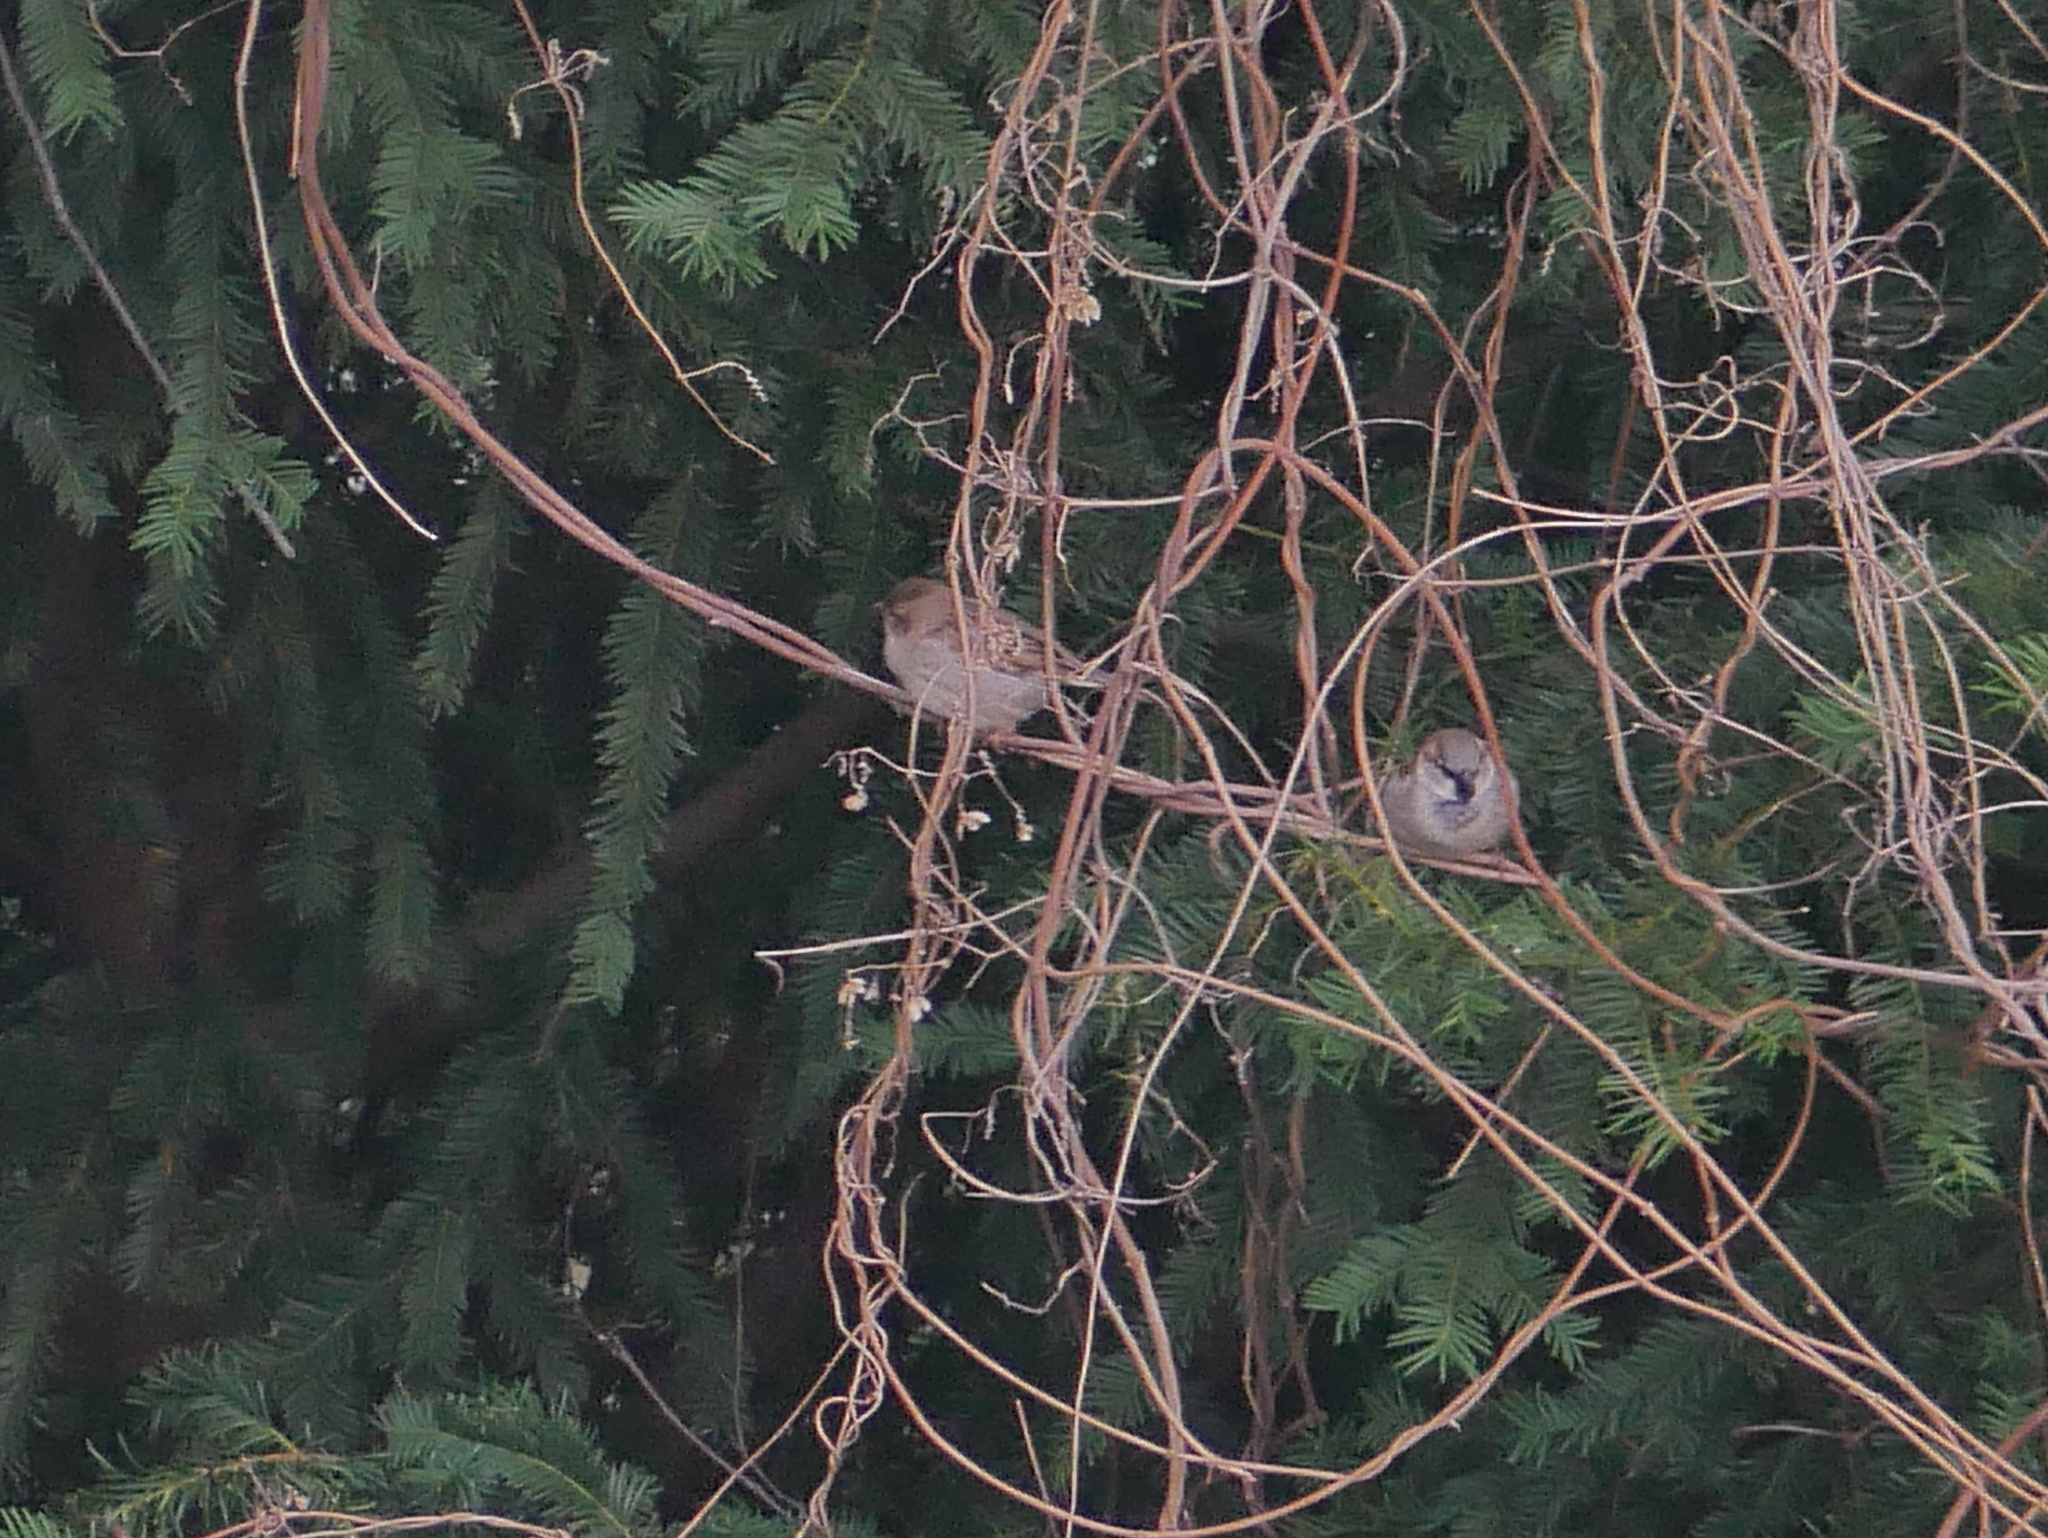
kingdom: Animalia
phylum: Chordata
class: Aves
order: Passeriformes
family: Passeridae
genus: Passer
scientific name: Passer domesticus
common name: House sparrow
